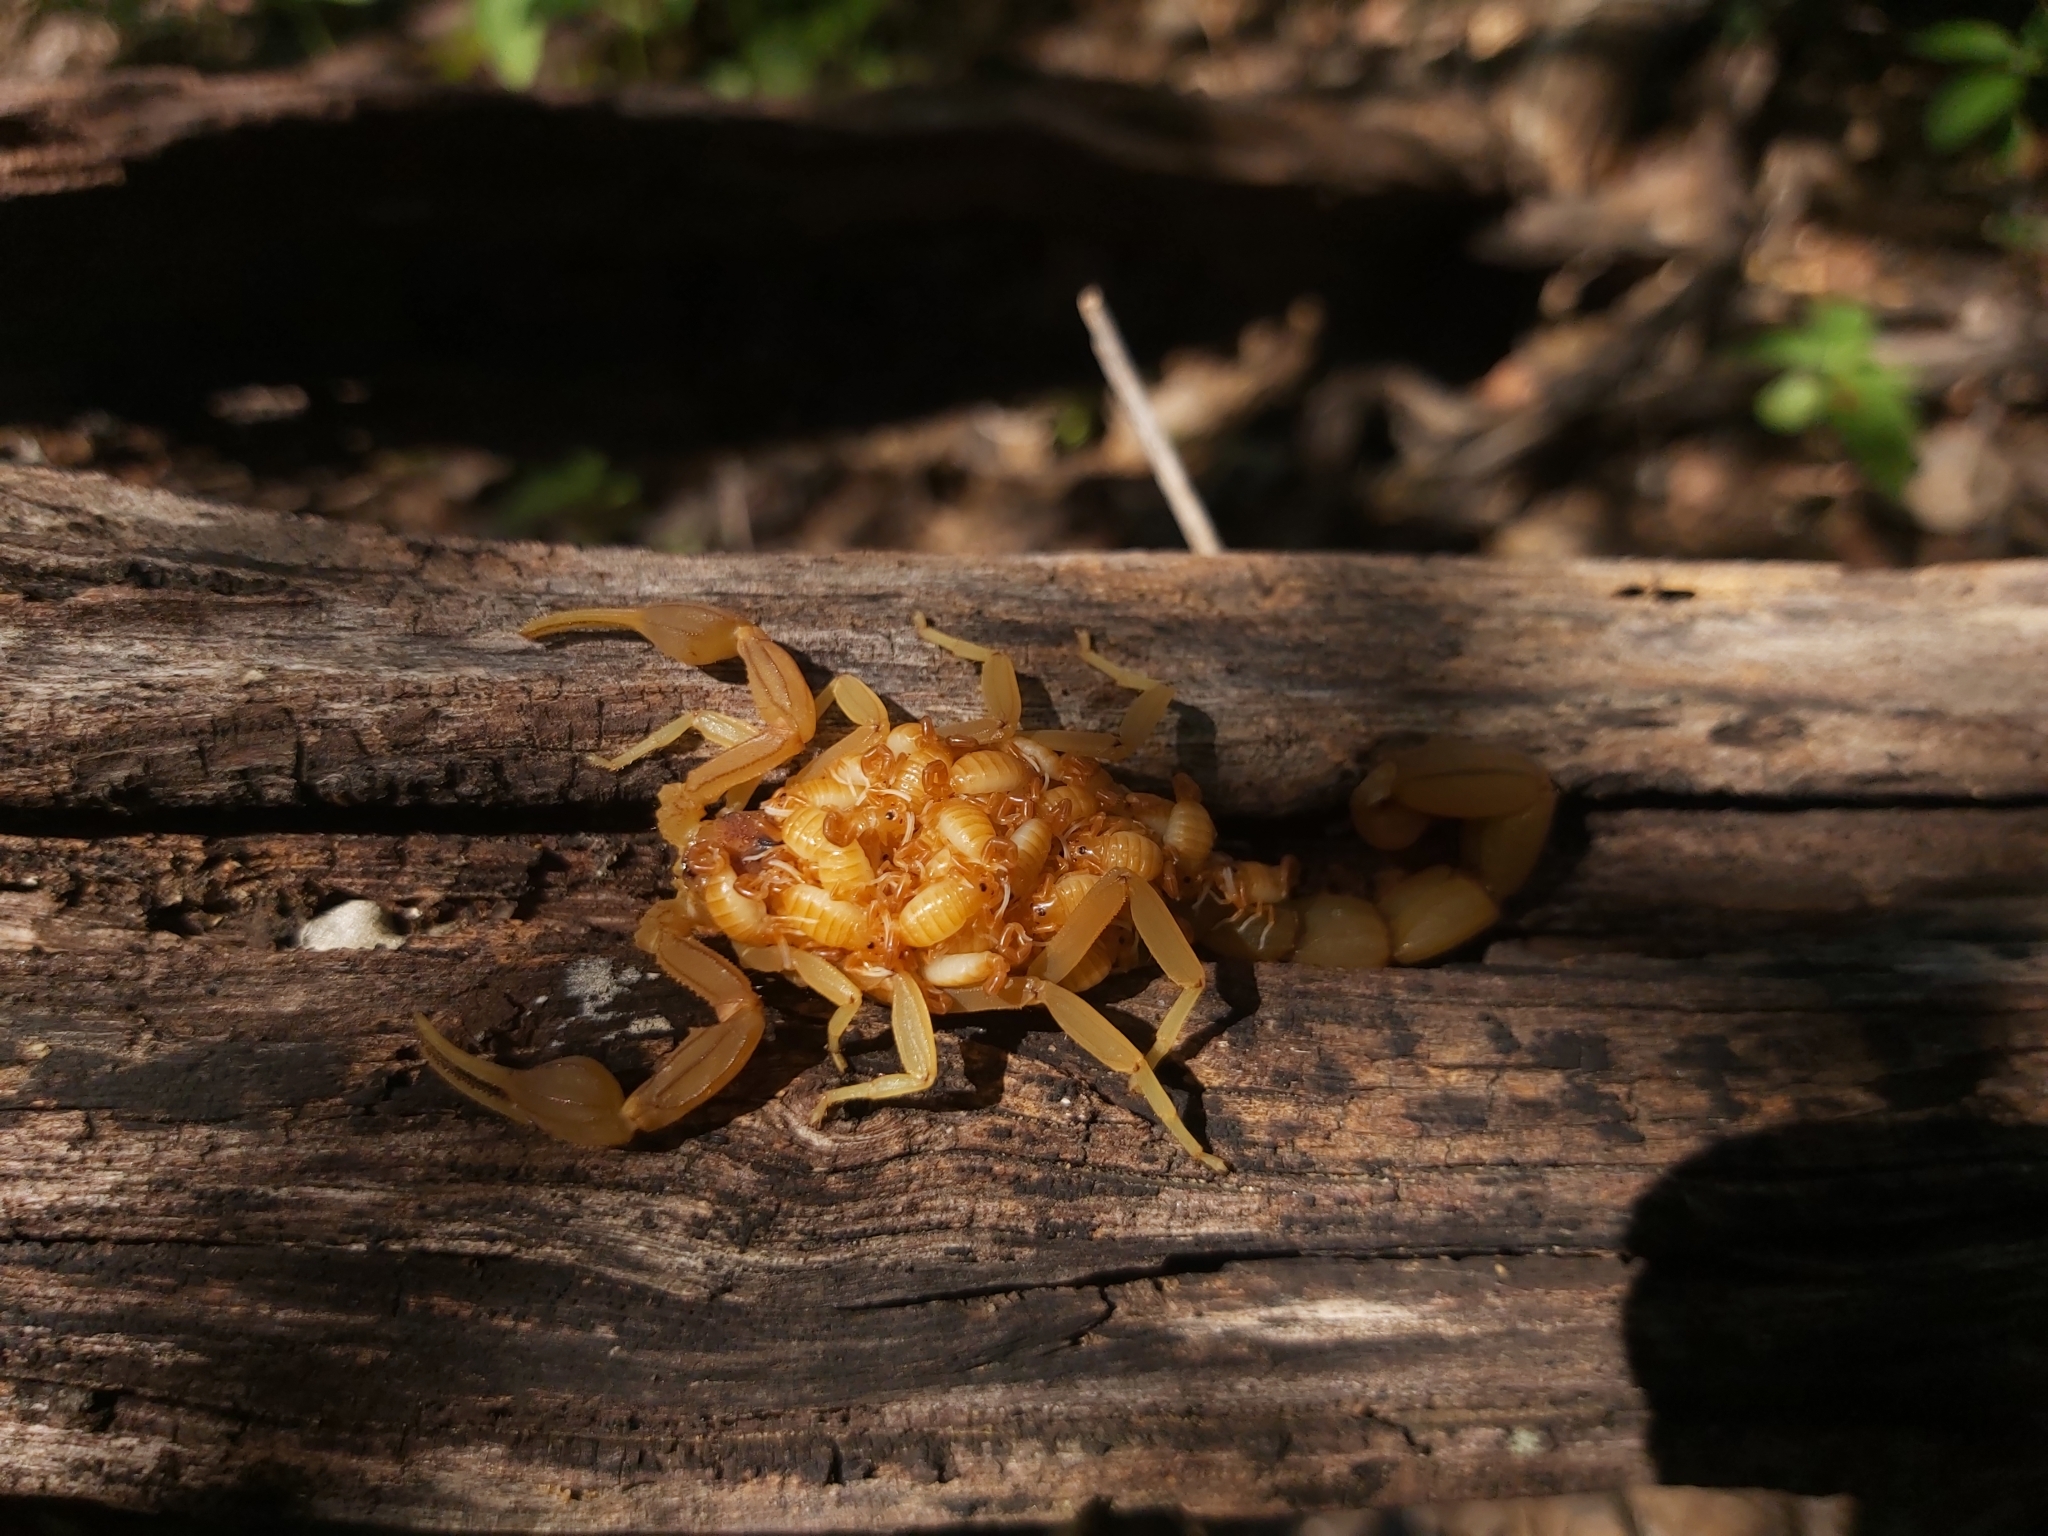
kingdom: Animalia
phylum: Arthropoda
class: Arachnida
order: Scorpiones
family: Buthidae
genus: Jaguajir
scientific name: Jaguajir rochae
